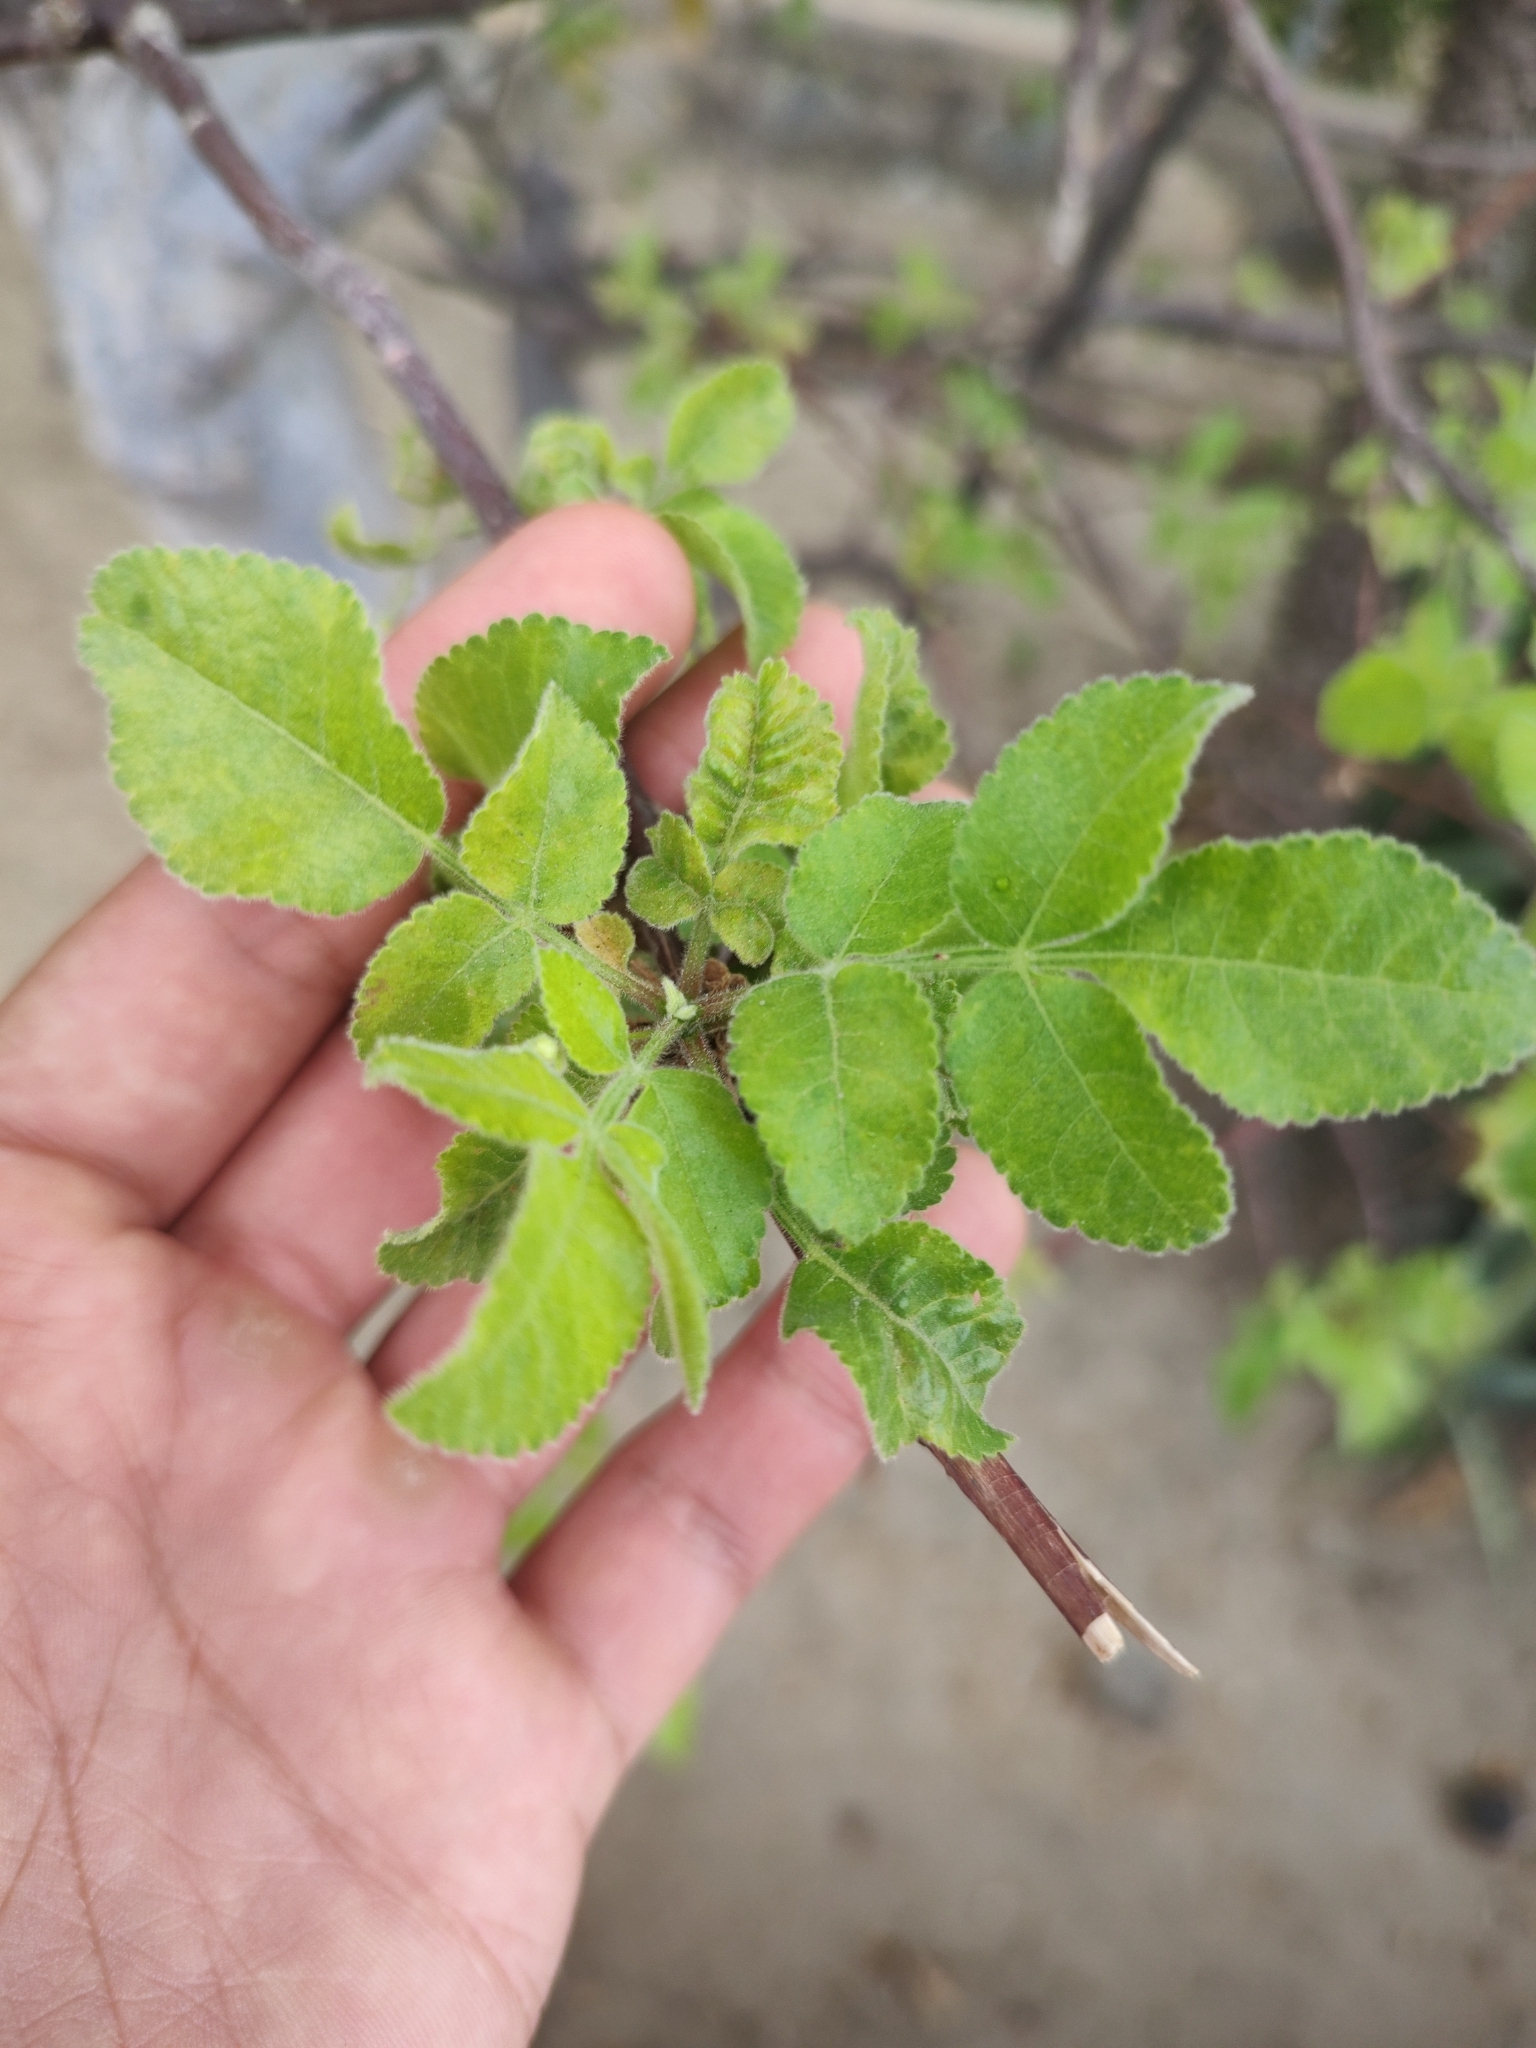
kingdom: Plantae
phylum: Tracheophyta
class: Magnoliopsida
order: Sapindales
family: Burseraceae
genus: Bursera
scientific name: Bursera epinnata
